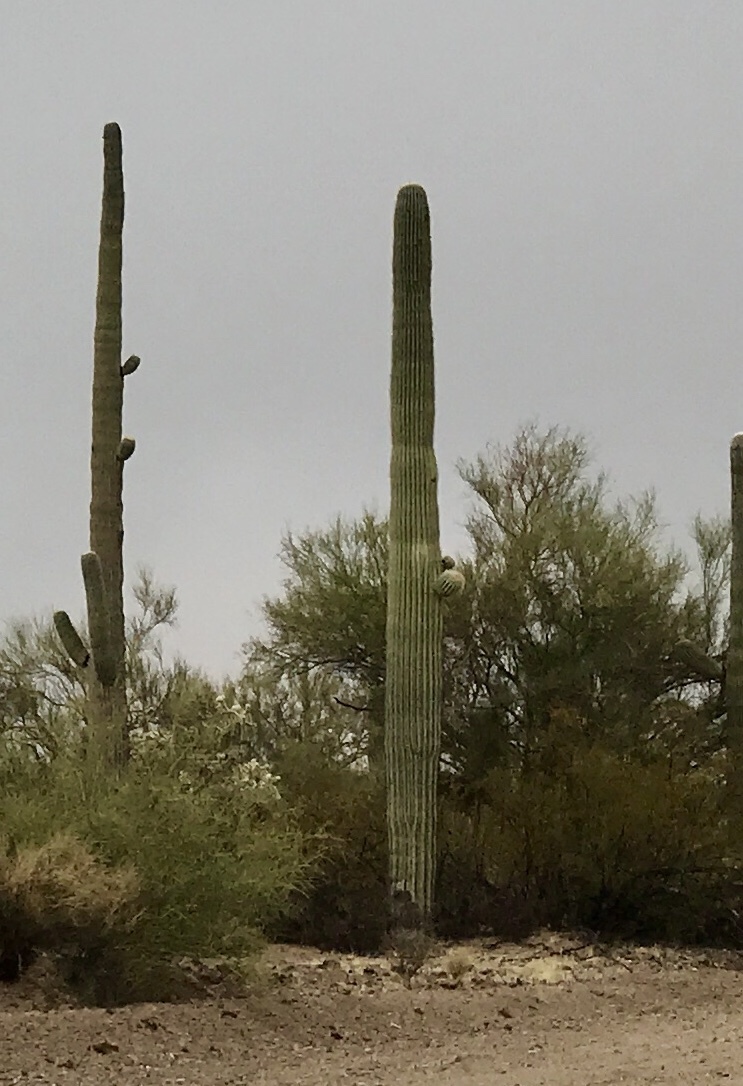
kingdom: Plantae
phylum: Tracheophyta
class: Magnoliopsida
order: Caryophyllales
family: Cactaceae
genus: Carnegiea
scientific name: Carnegiea gigantea
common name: Saguaro
